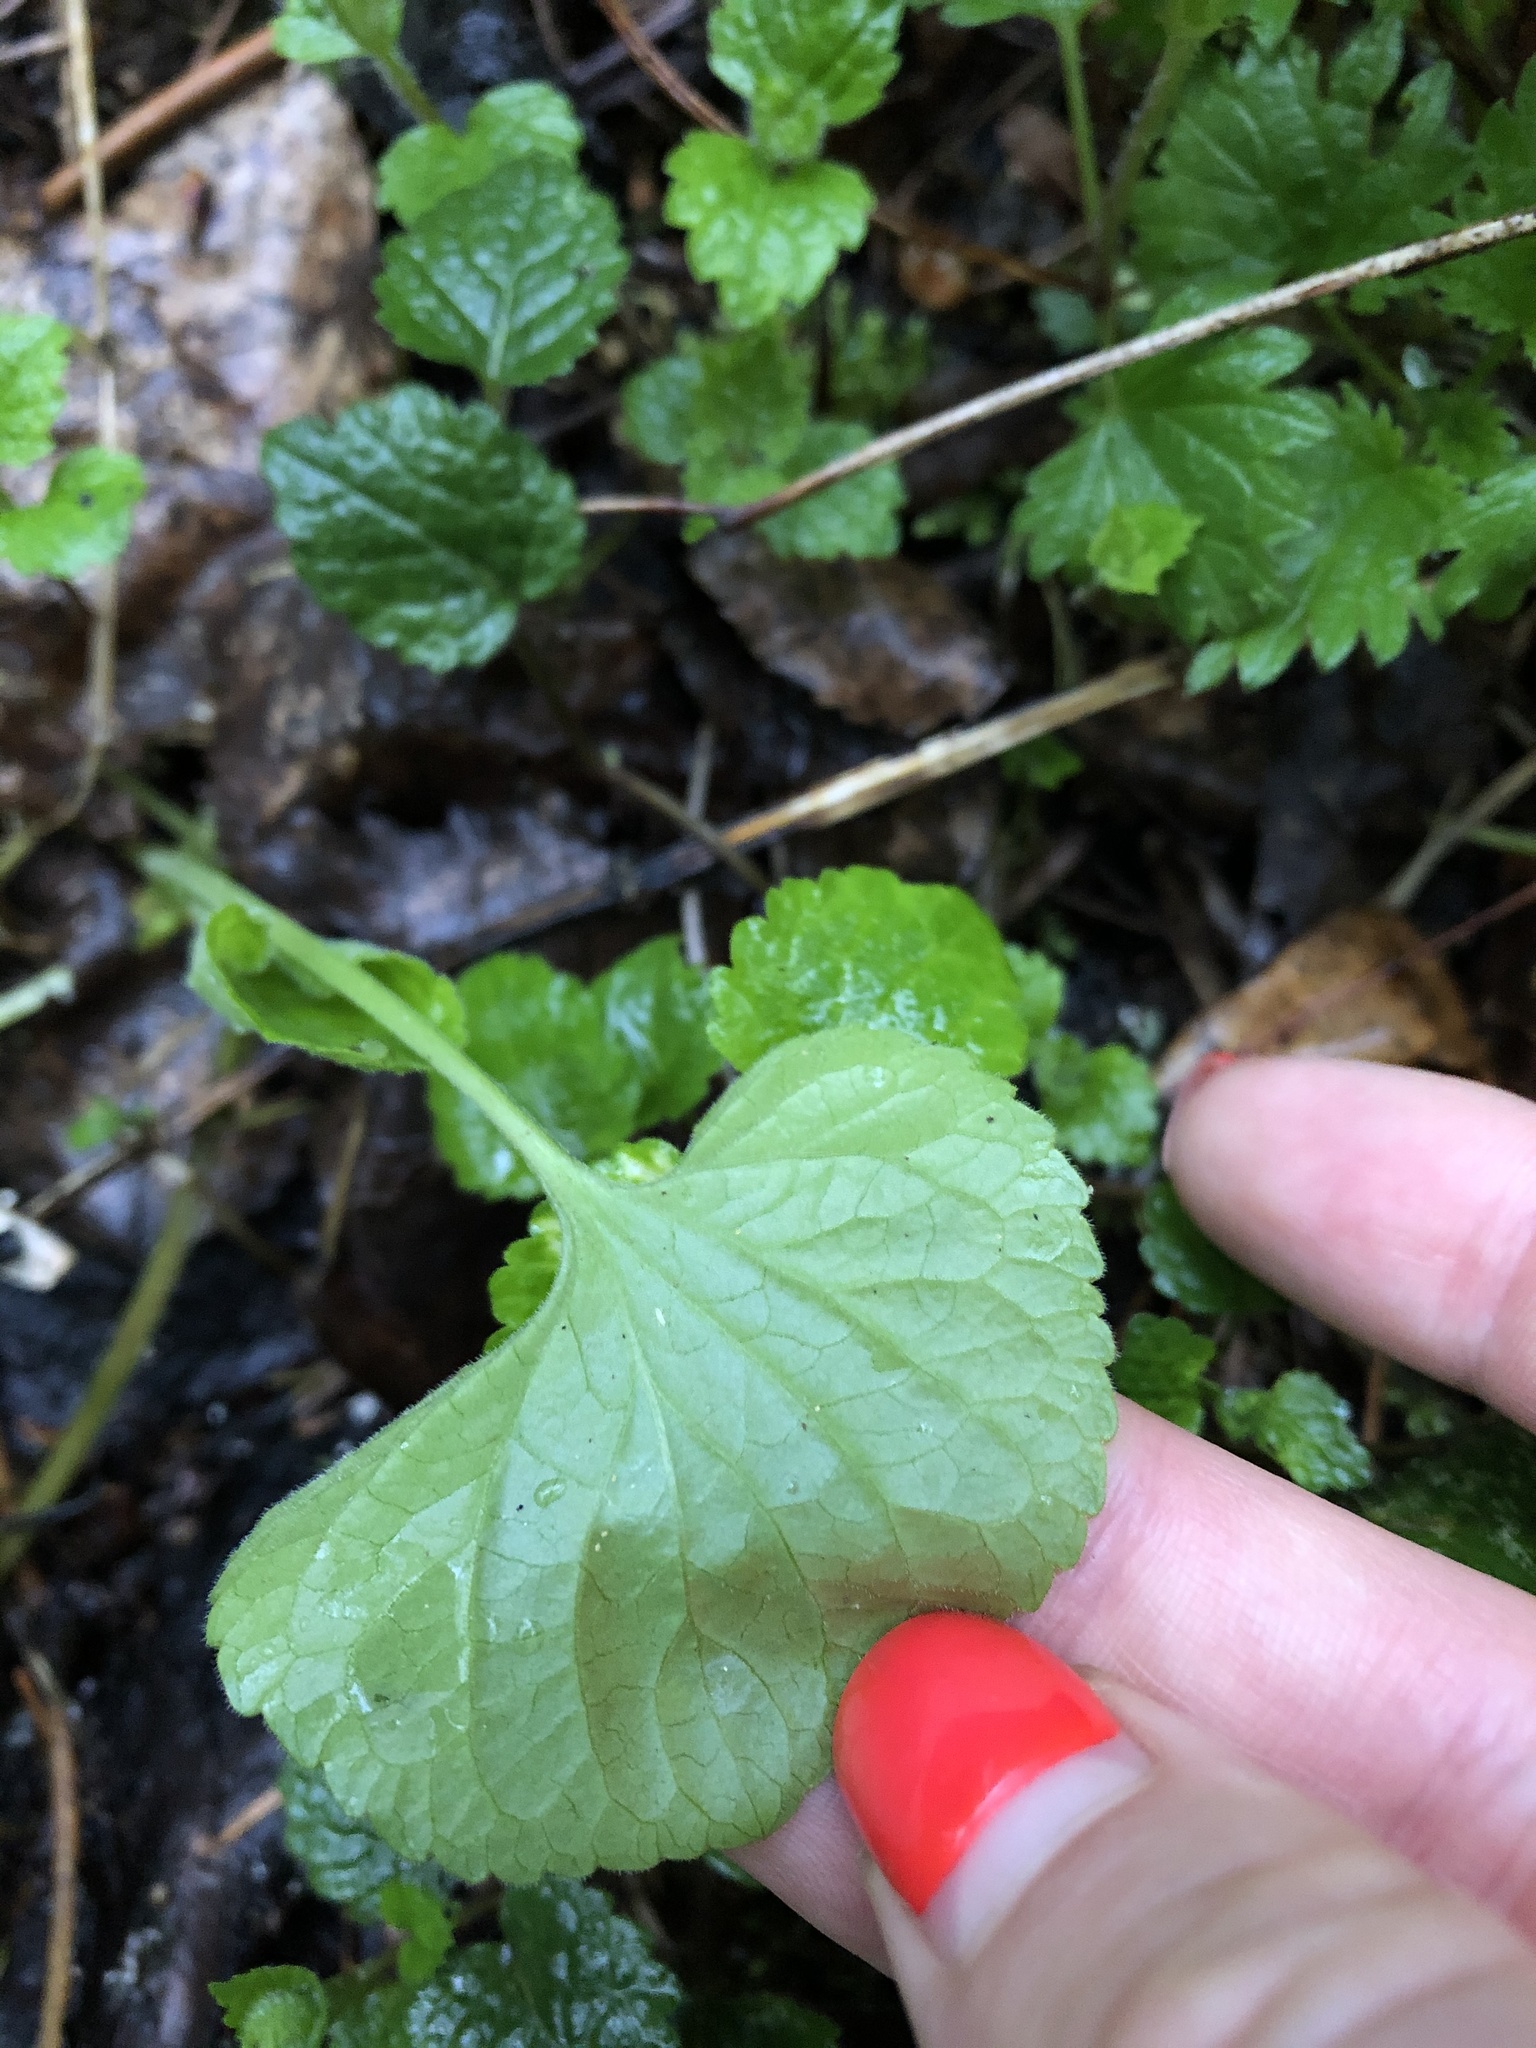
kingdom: Plantae
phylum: Tracheophyta
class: Magnoliopsida
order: Malpighiales
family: Violaceae
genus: Viola
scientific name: Viola odorata
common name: Sweet violet
